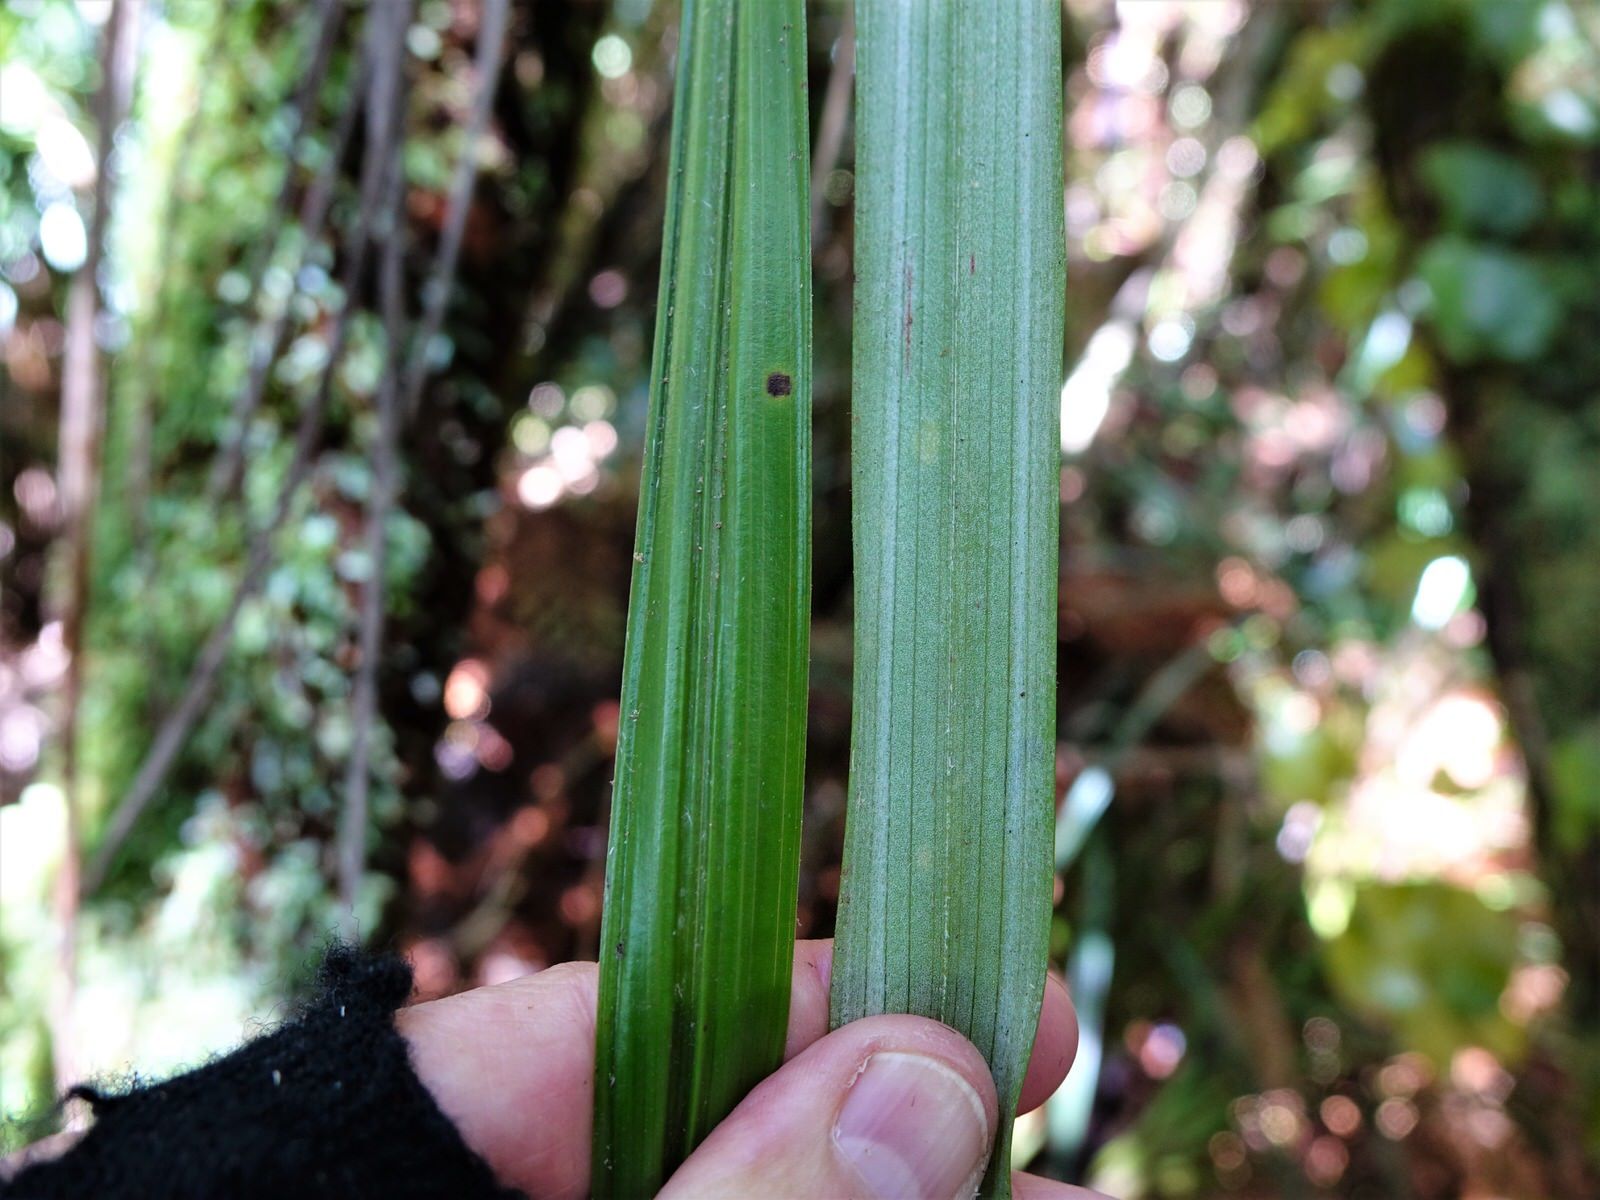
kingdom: Plantae
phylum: Tracheophyta
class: Liliopsida
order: Asparagales
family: Asteliaceae
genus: Astelia
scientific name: Astelia solandri
